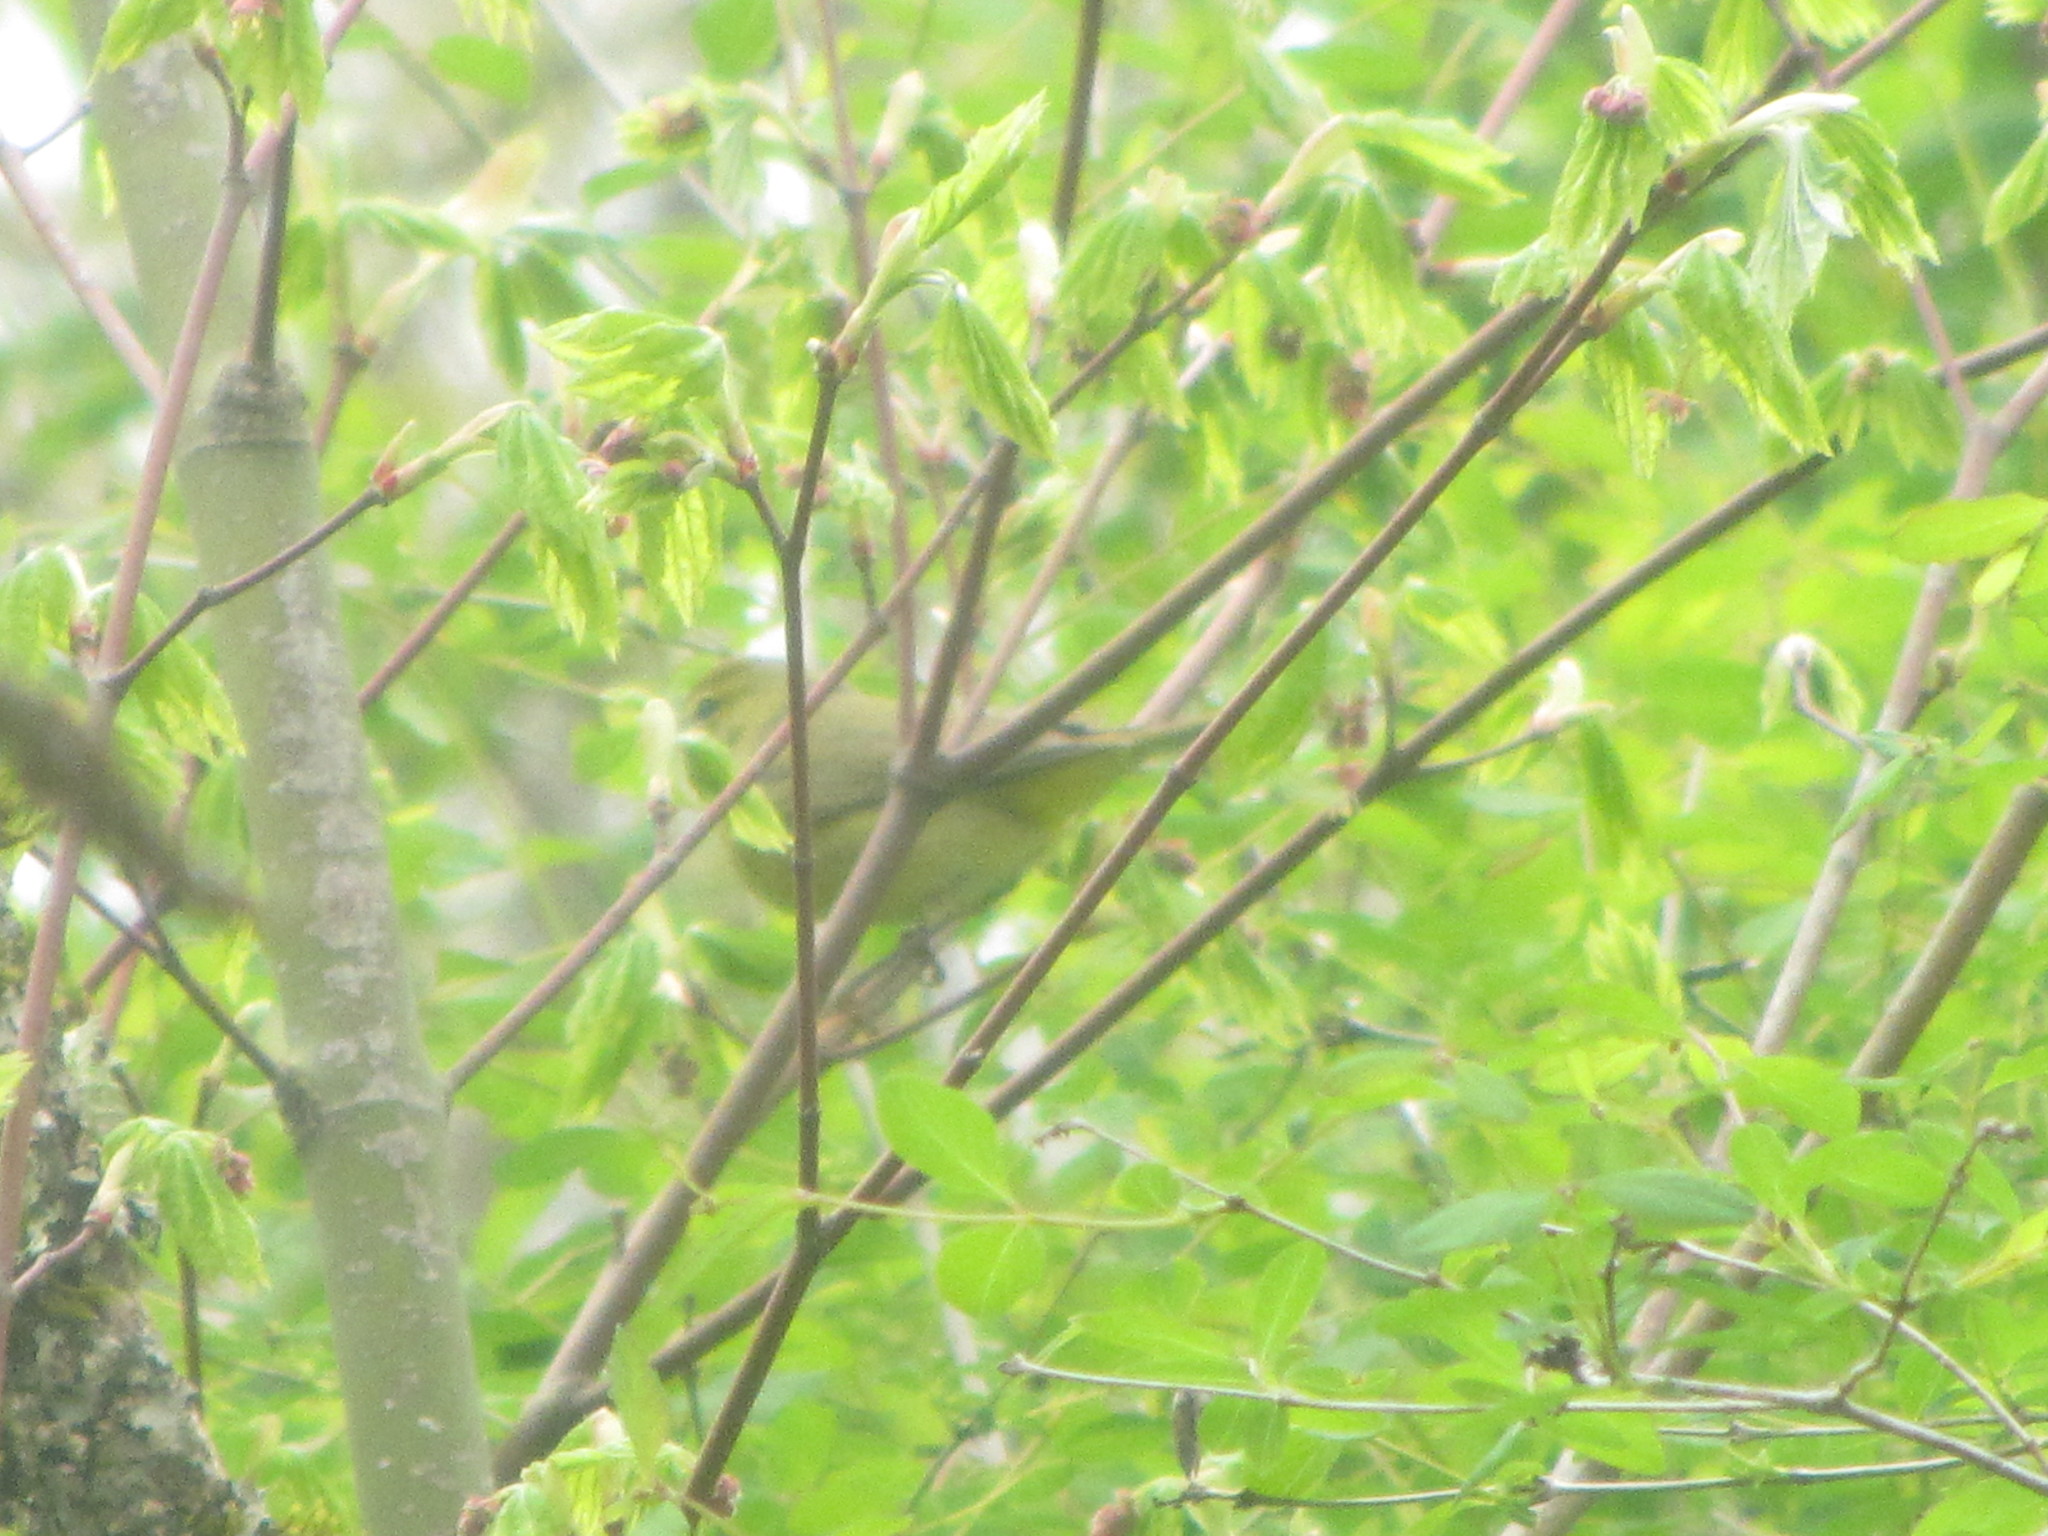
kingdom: Animalia
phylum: Chordata
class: Aves
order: Passeriformes
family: Parulidae
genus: Leiothlypis
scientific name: Leiothlypis celata
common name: Orange-crowned warbler
